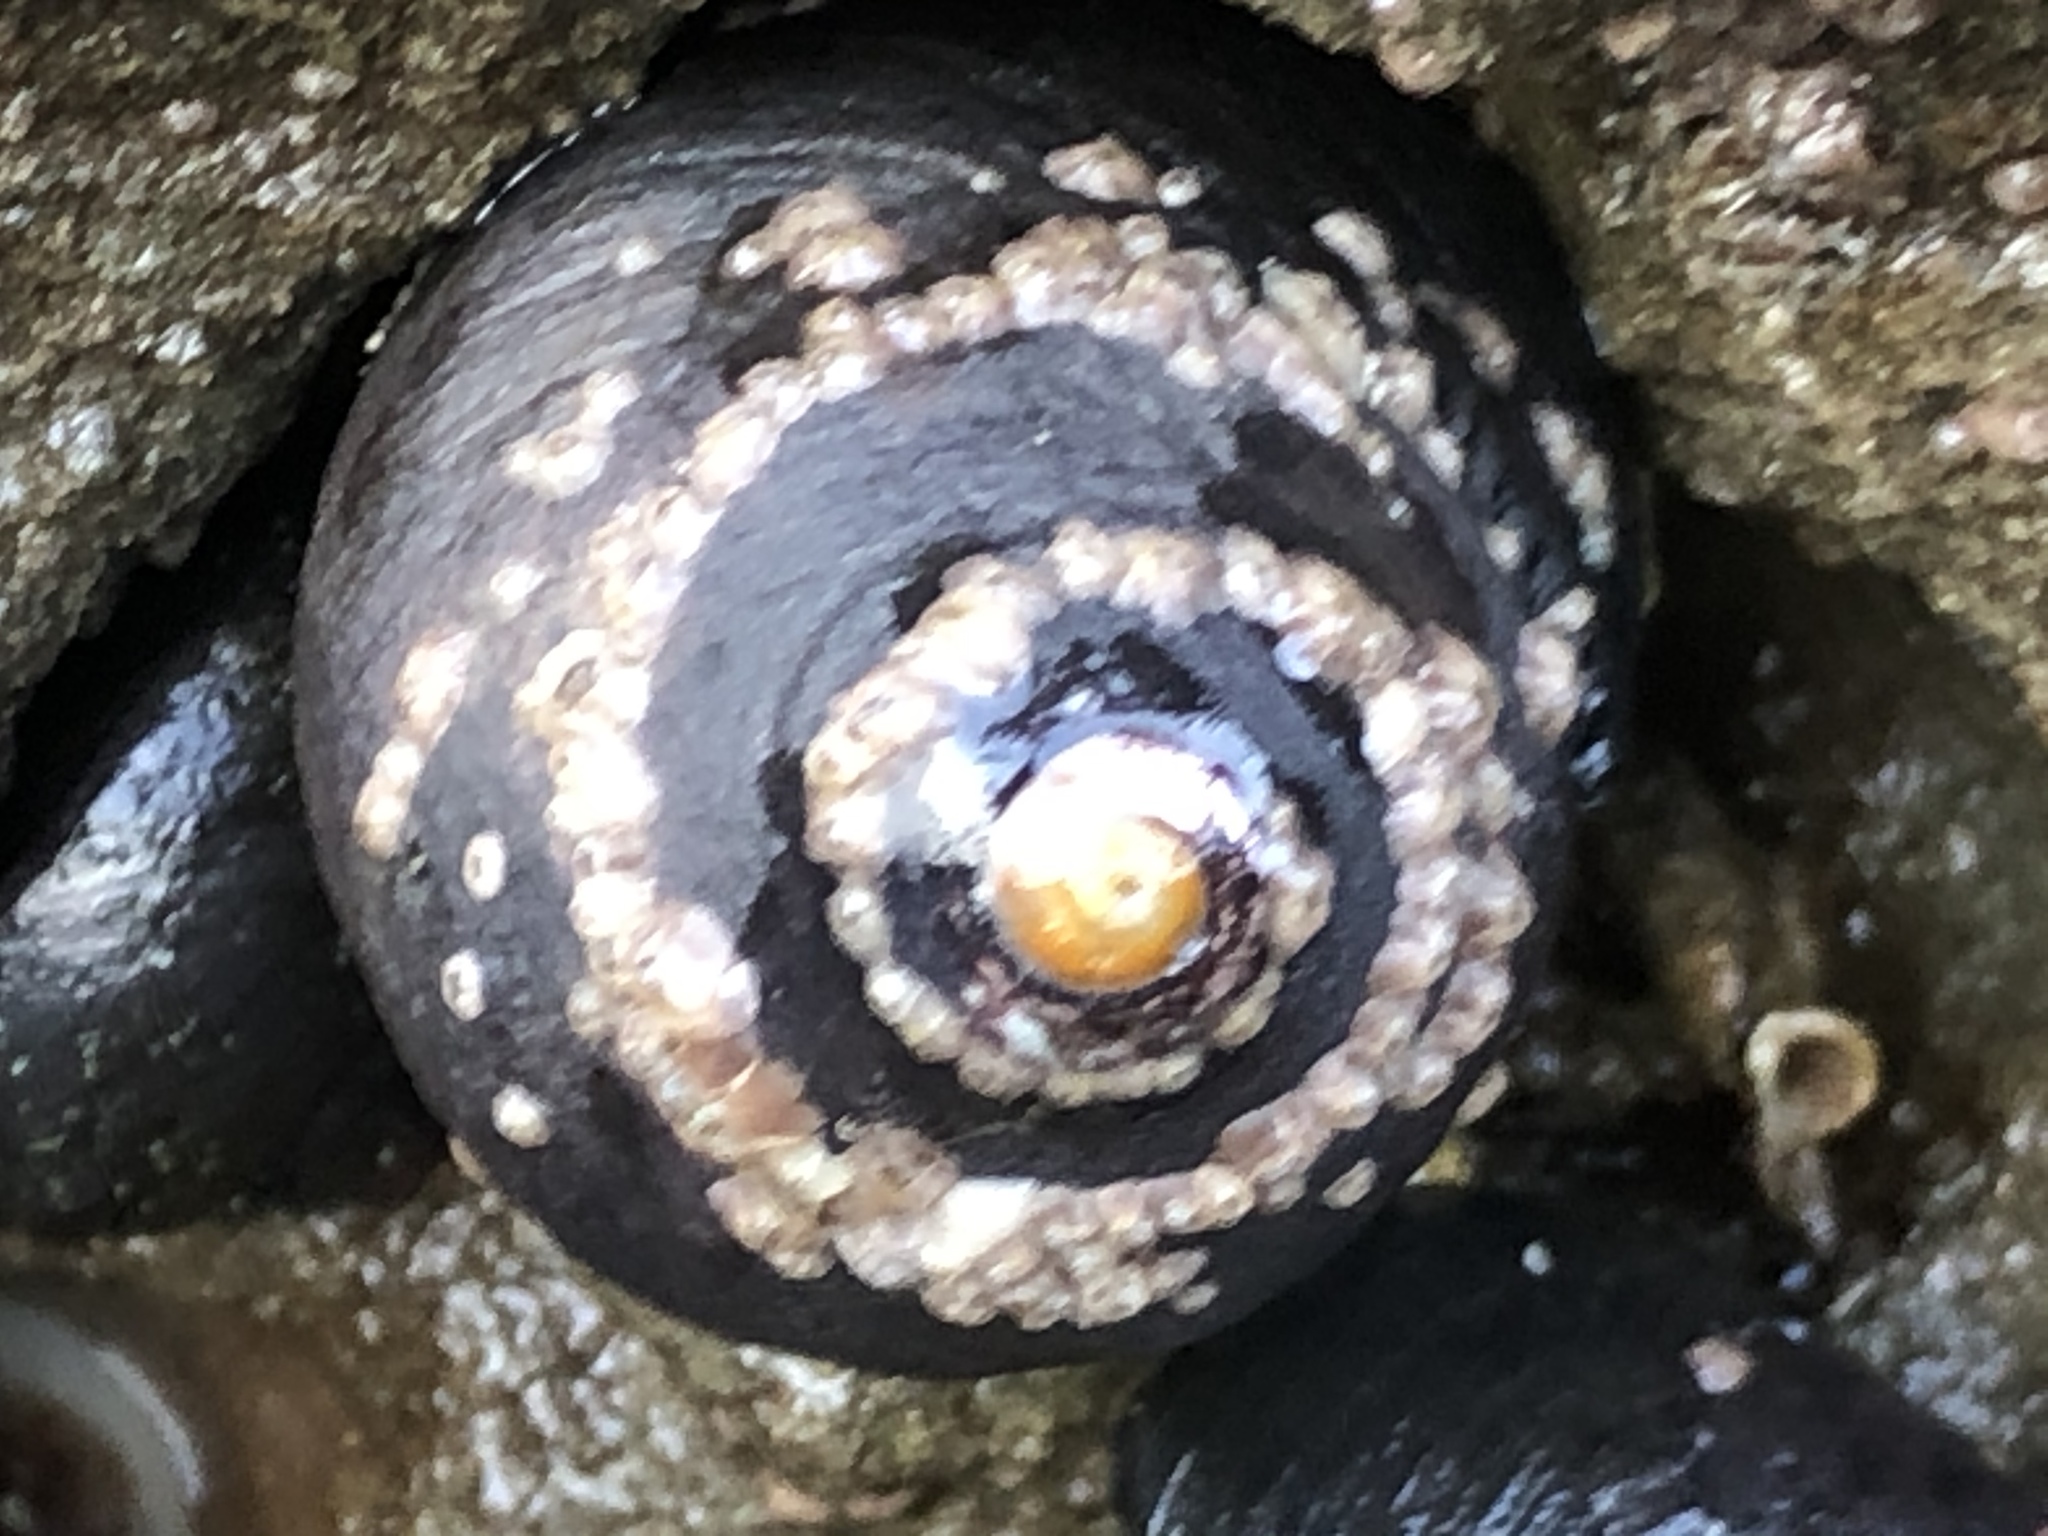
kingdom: Animalia
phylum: Mollusca
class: Gastropoda
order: Trochida
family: Tegulidae
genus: Tegula
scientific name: Tegula funebralis
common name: Black tegula
